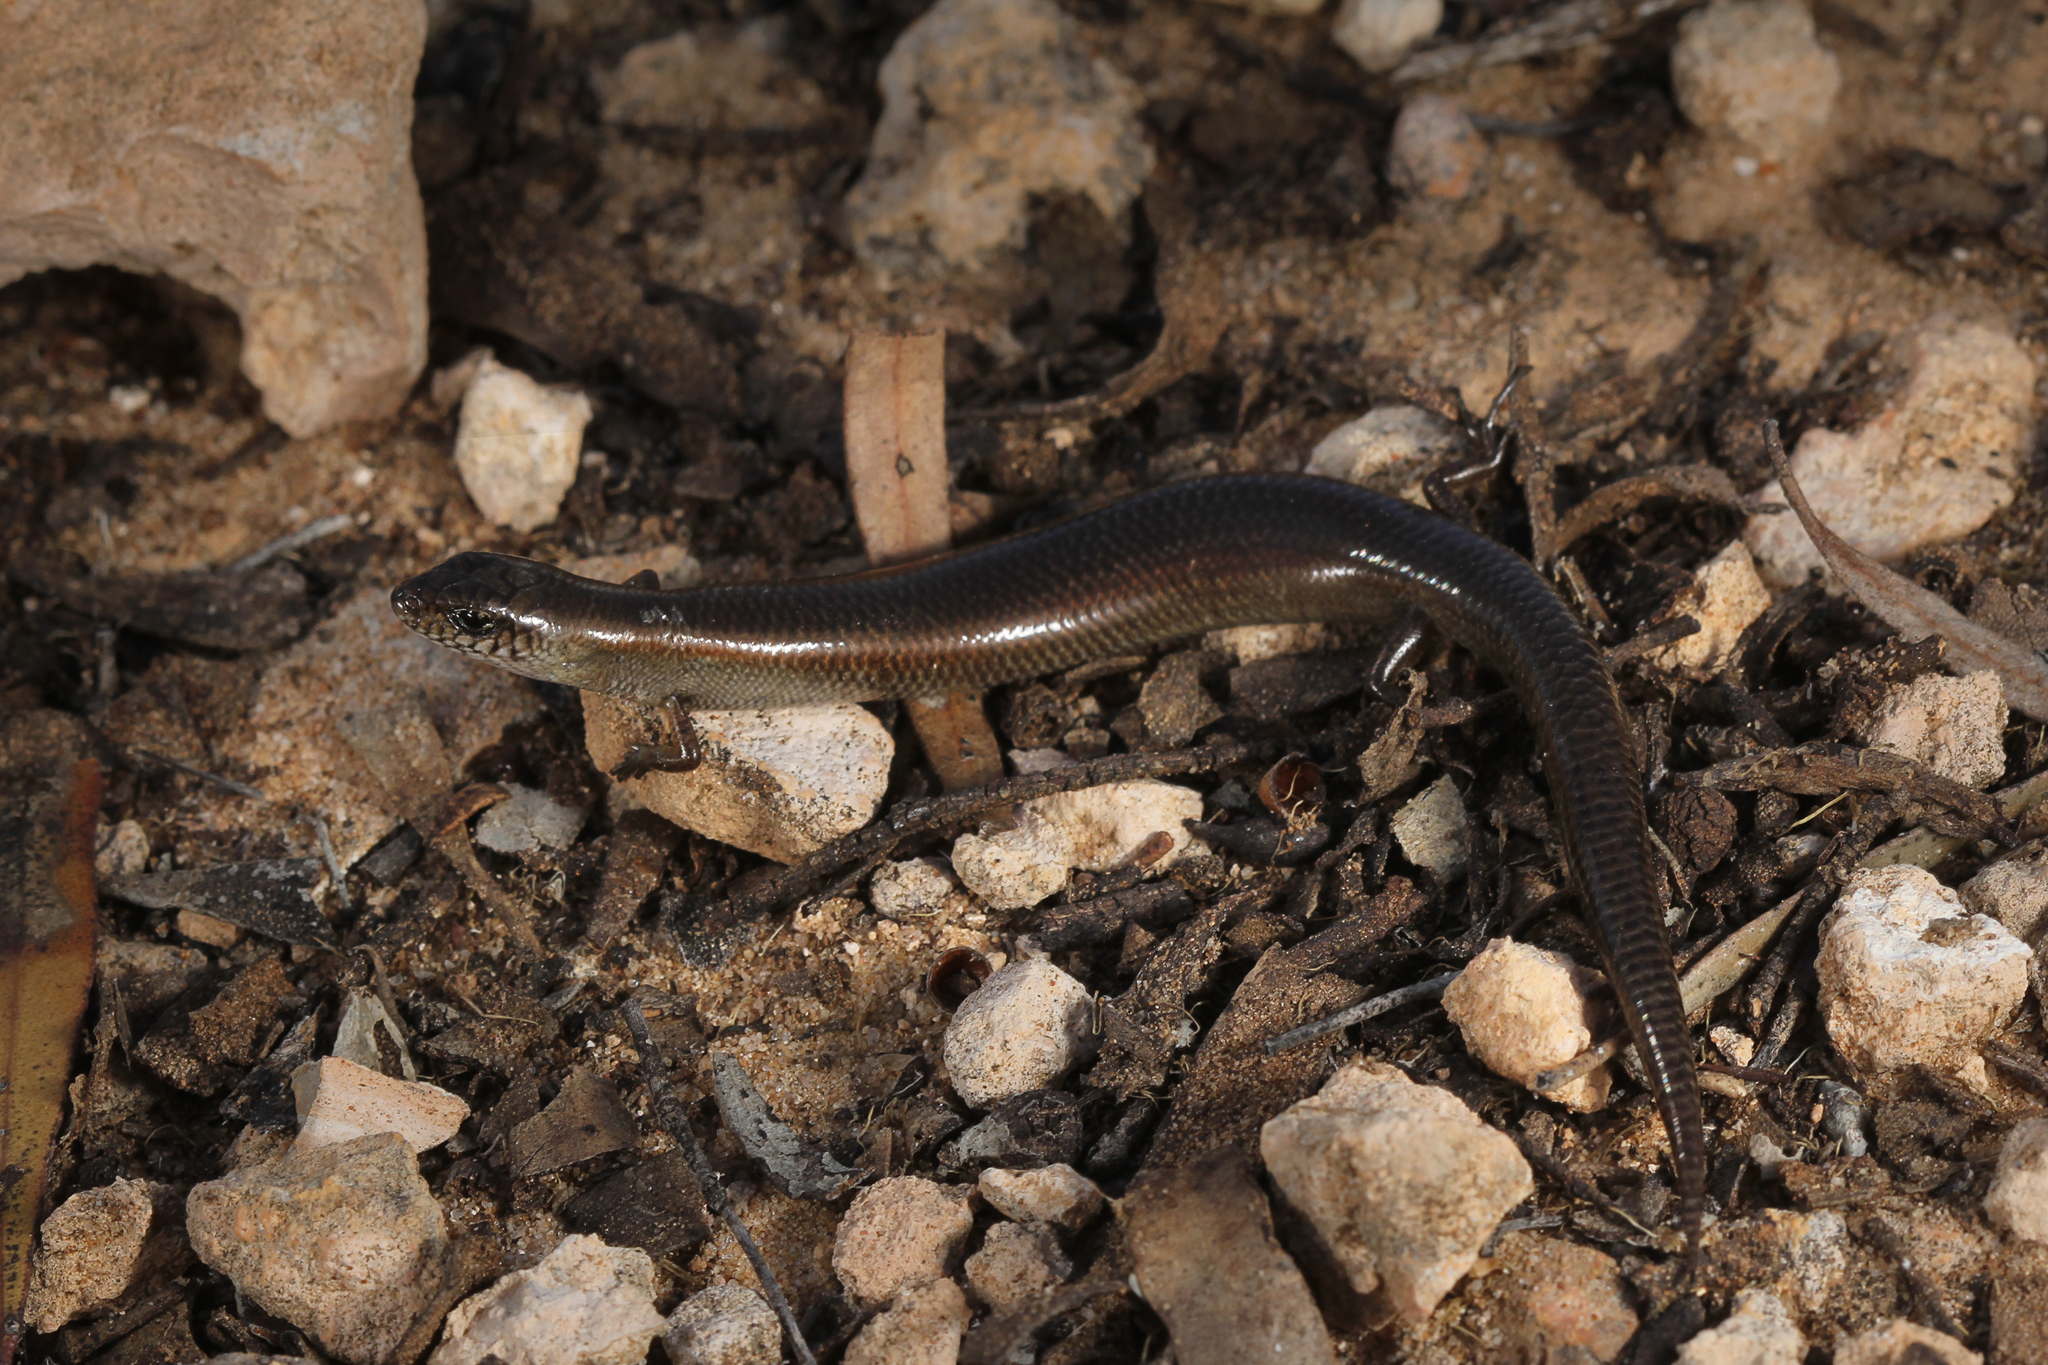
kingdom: Animalia
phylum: Chordata
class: Squamata
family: Scincidae
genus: Hemiergis
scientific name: Hemiergis millewae
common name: Triodia earless skink
